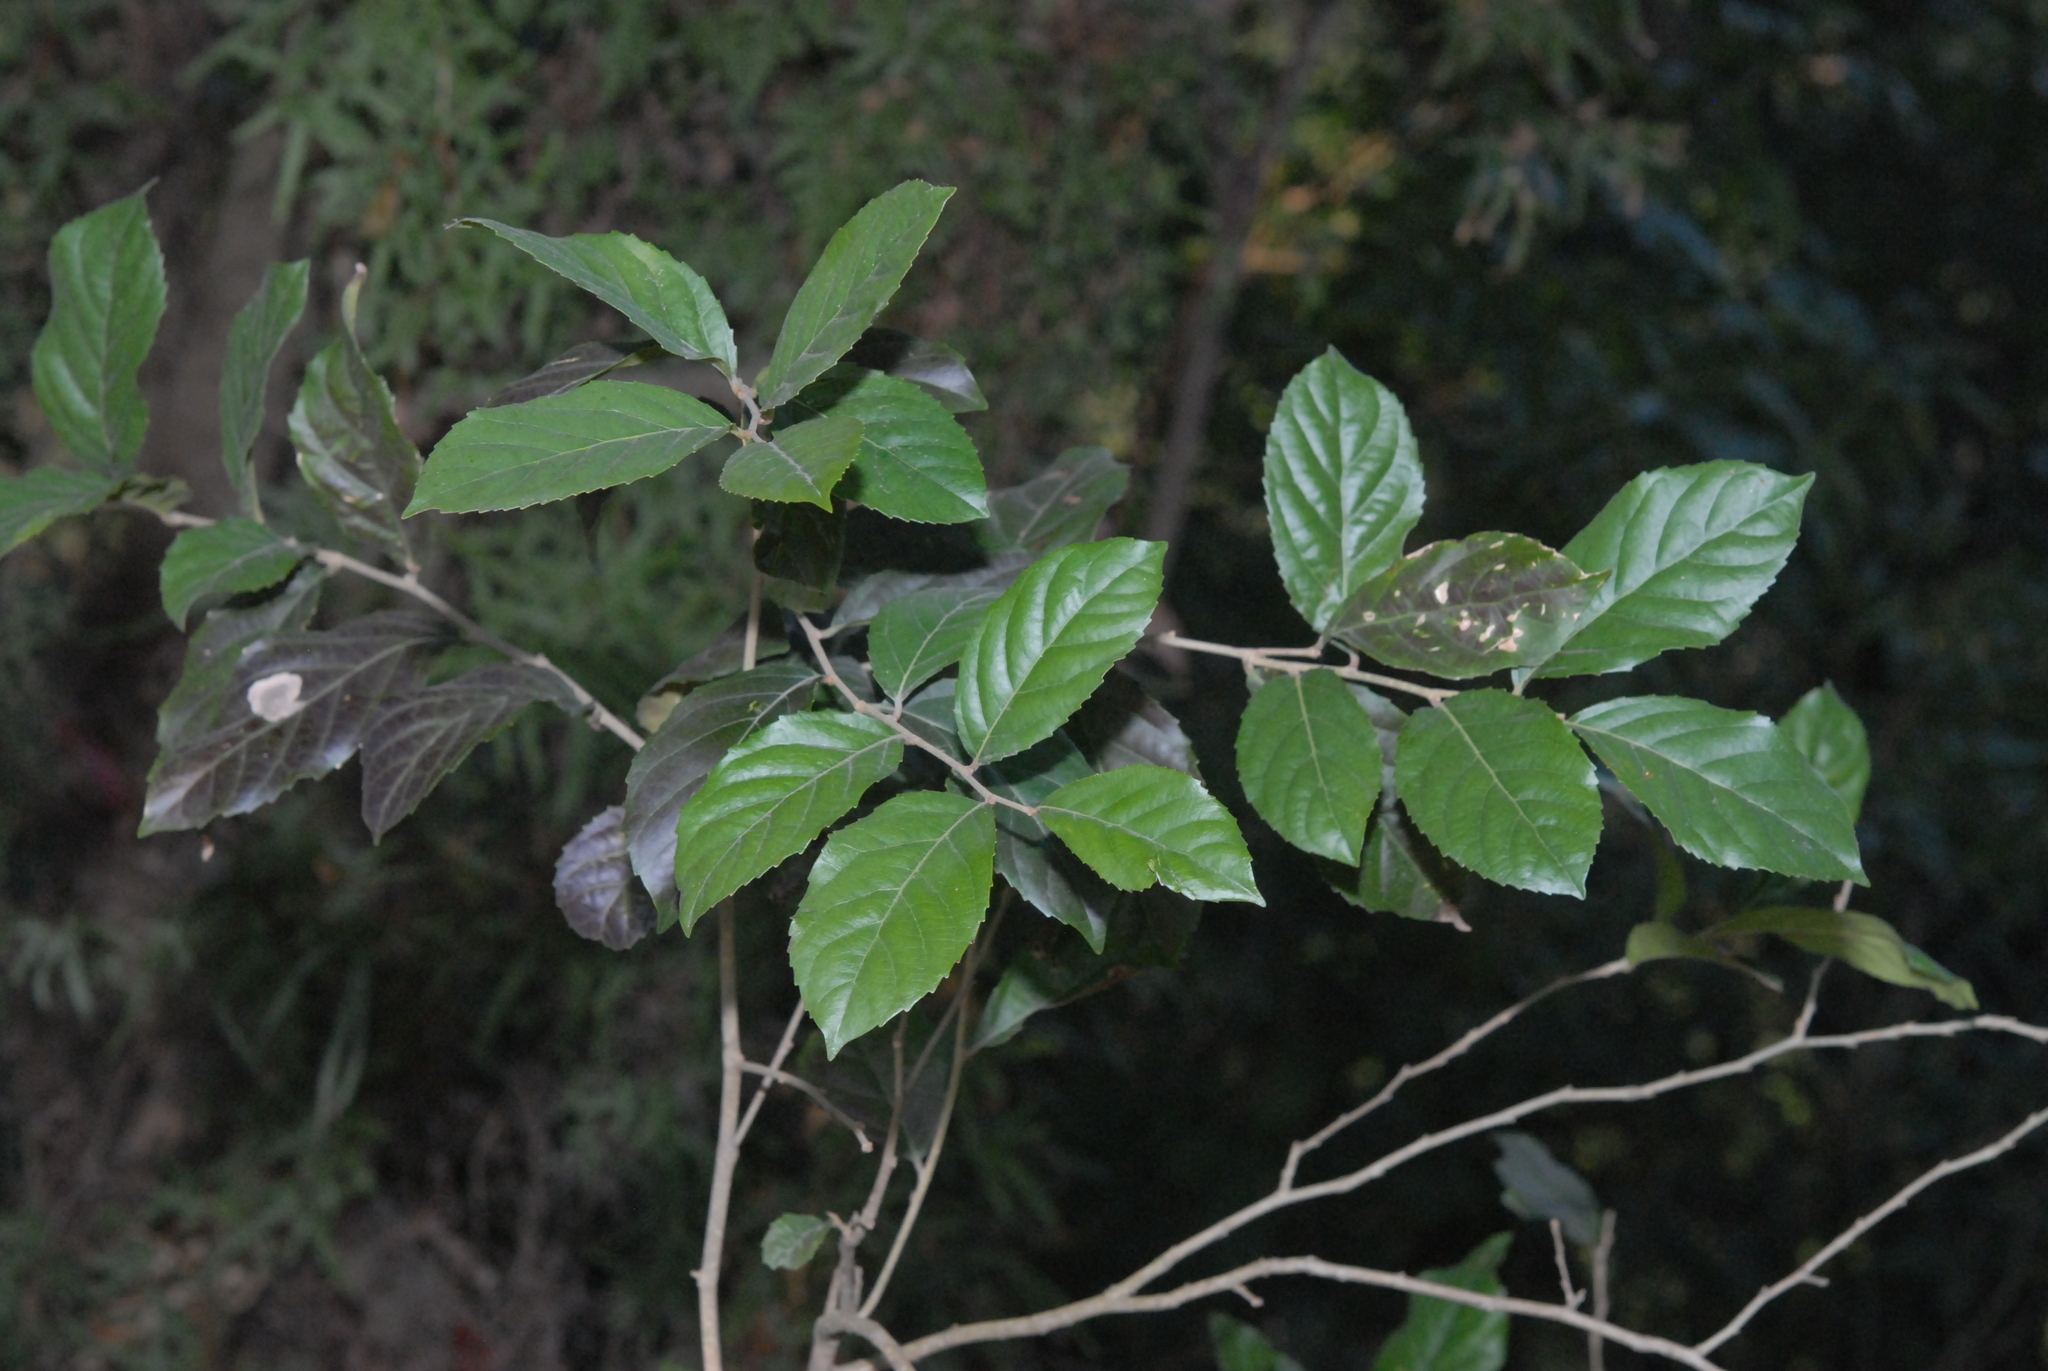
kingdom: Plantae
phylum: Tracheophyta
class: Magnoliopsida
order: Malpighiales
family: Salicaceae
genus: Homalium
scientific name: Homalium cochinchinensis
